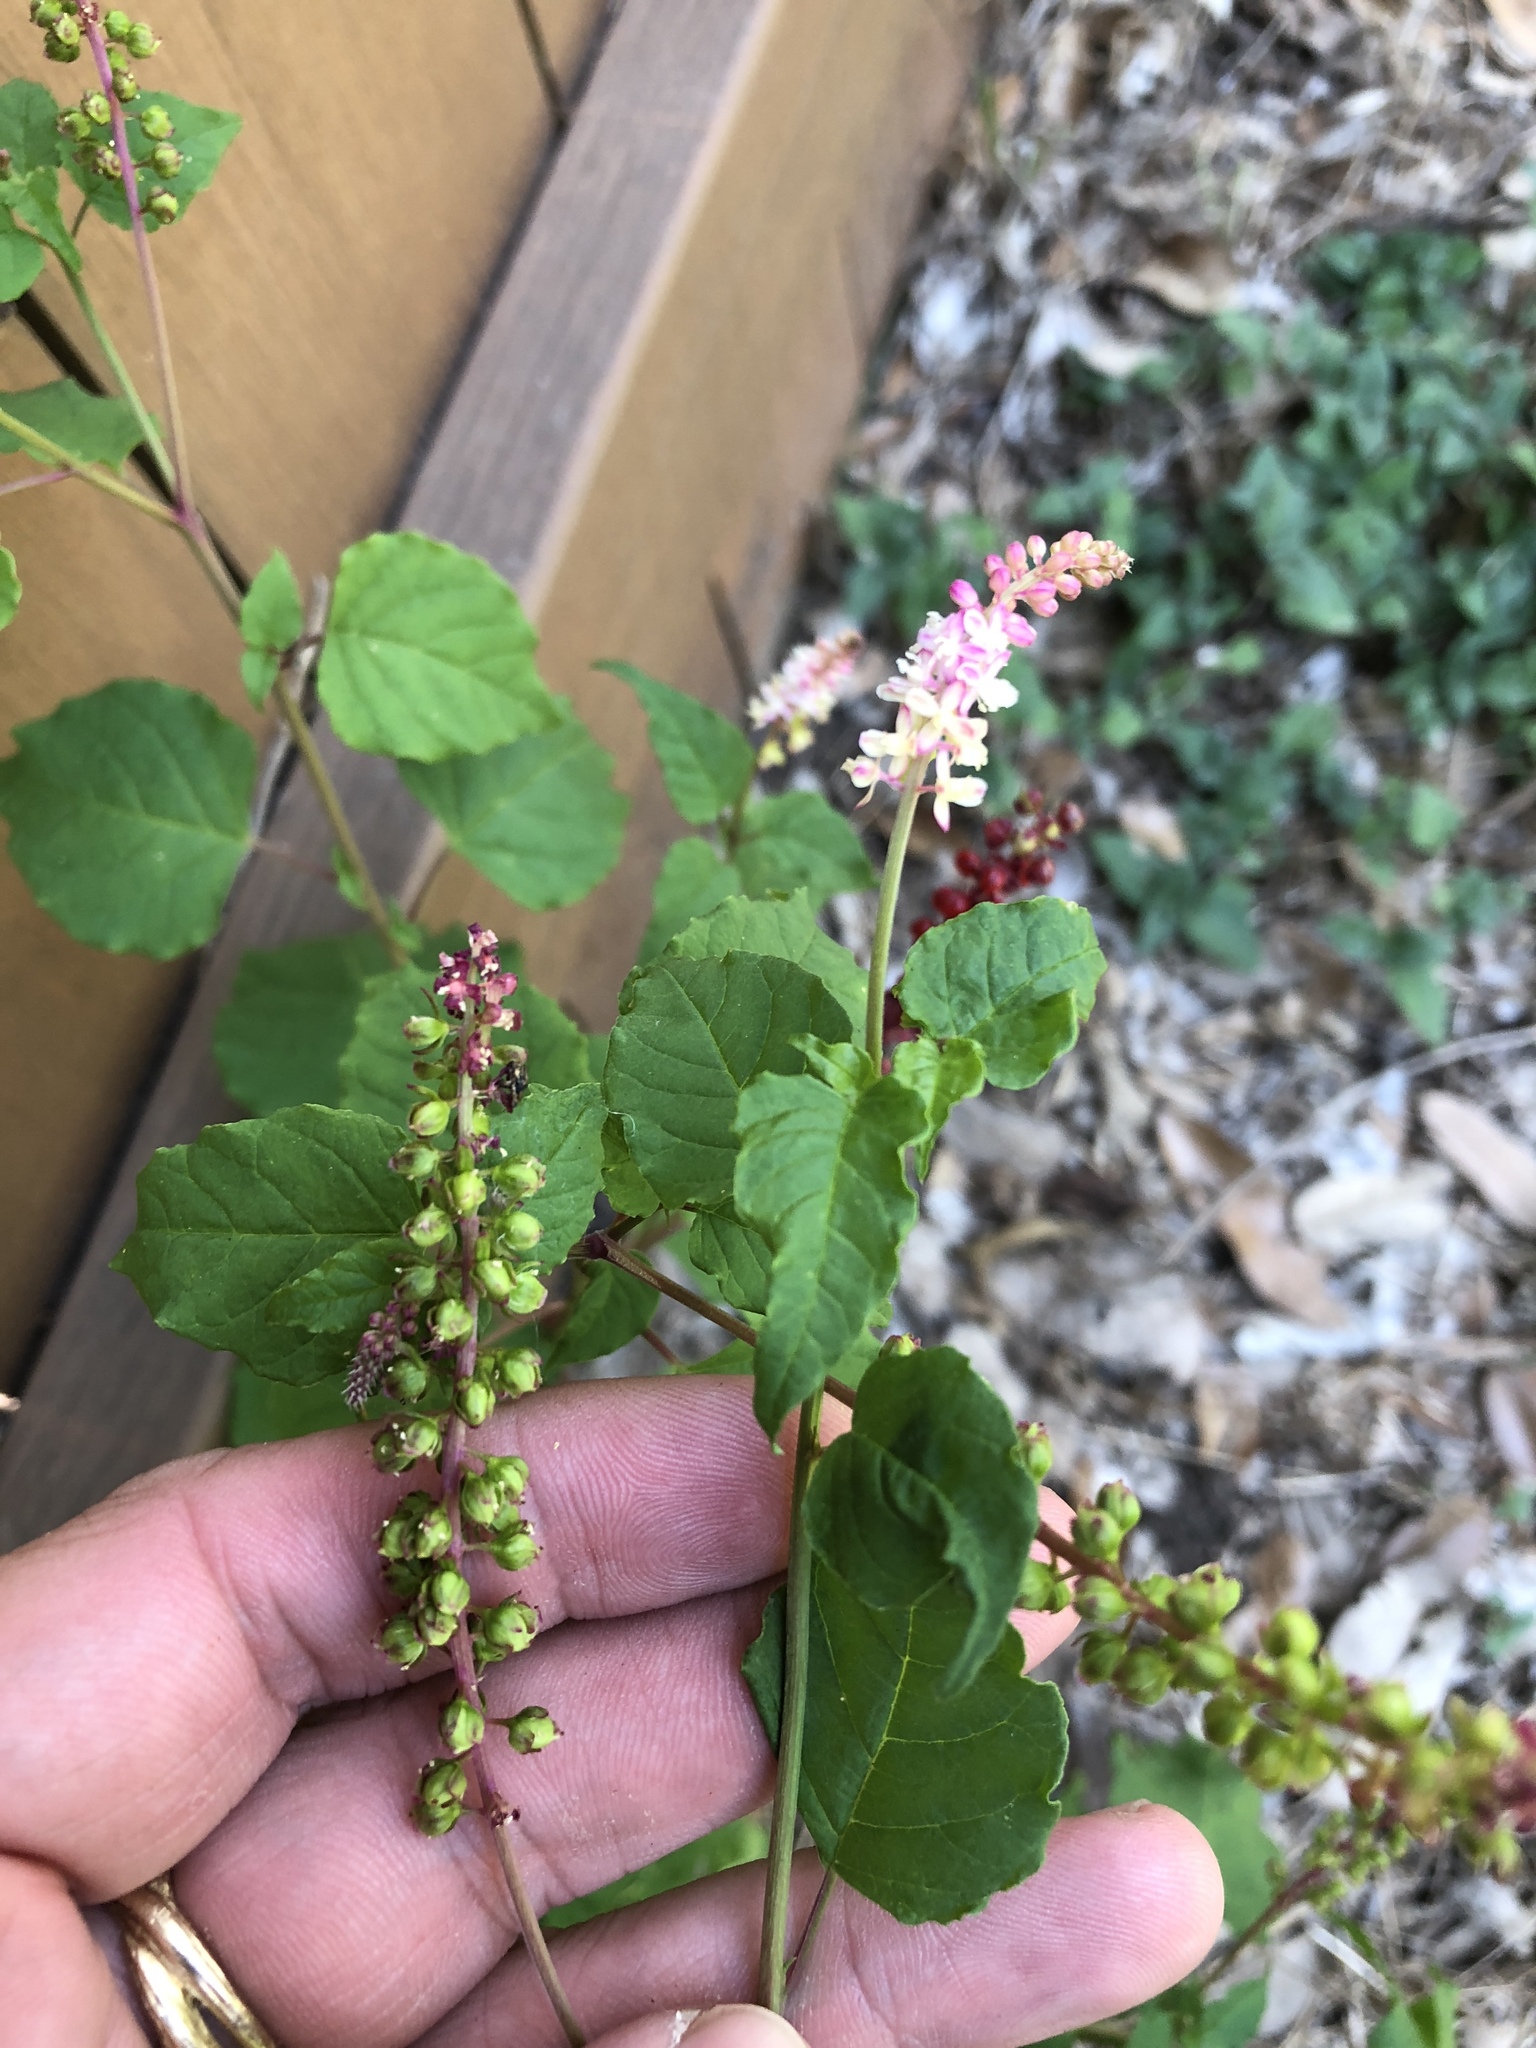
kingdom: Plantae
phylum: Tracheophyta
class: Magnoliopsida
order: Caryophyllales
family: Phytolaccaceae
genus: Rivina
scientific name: Rivina humilis
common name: Rougeplant
